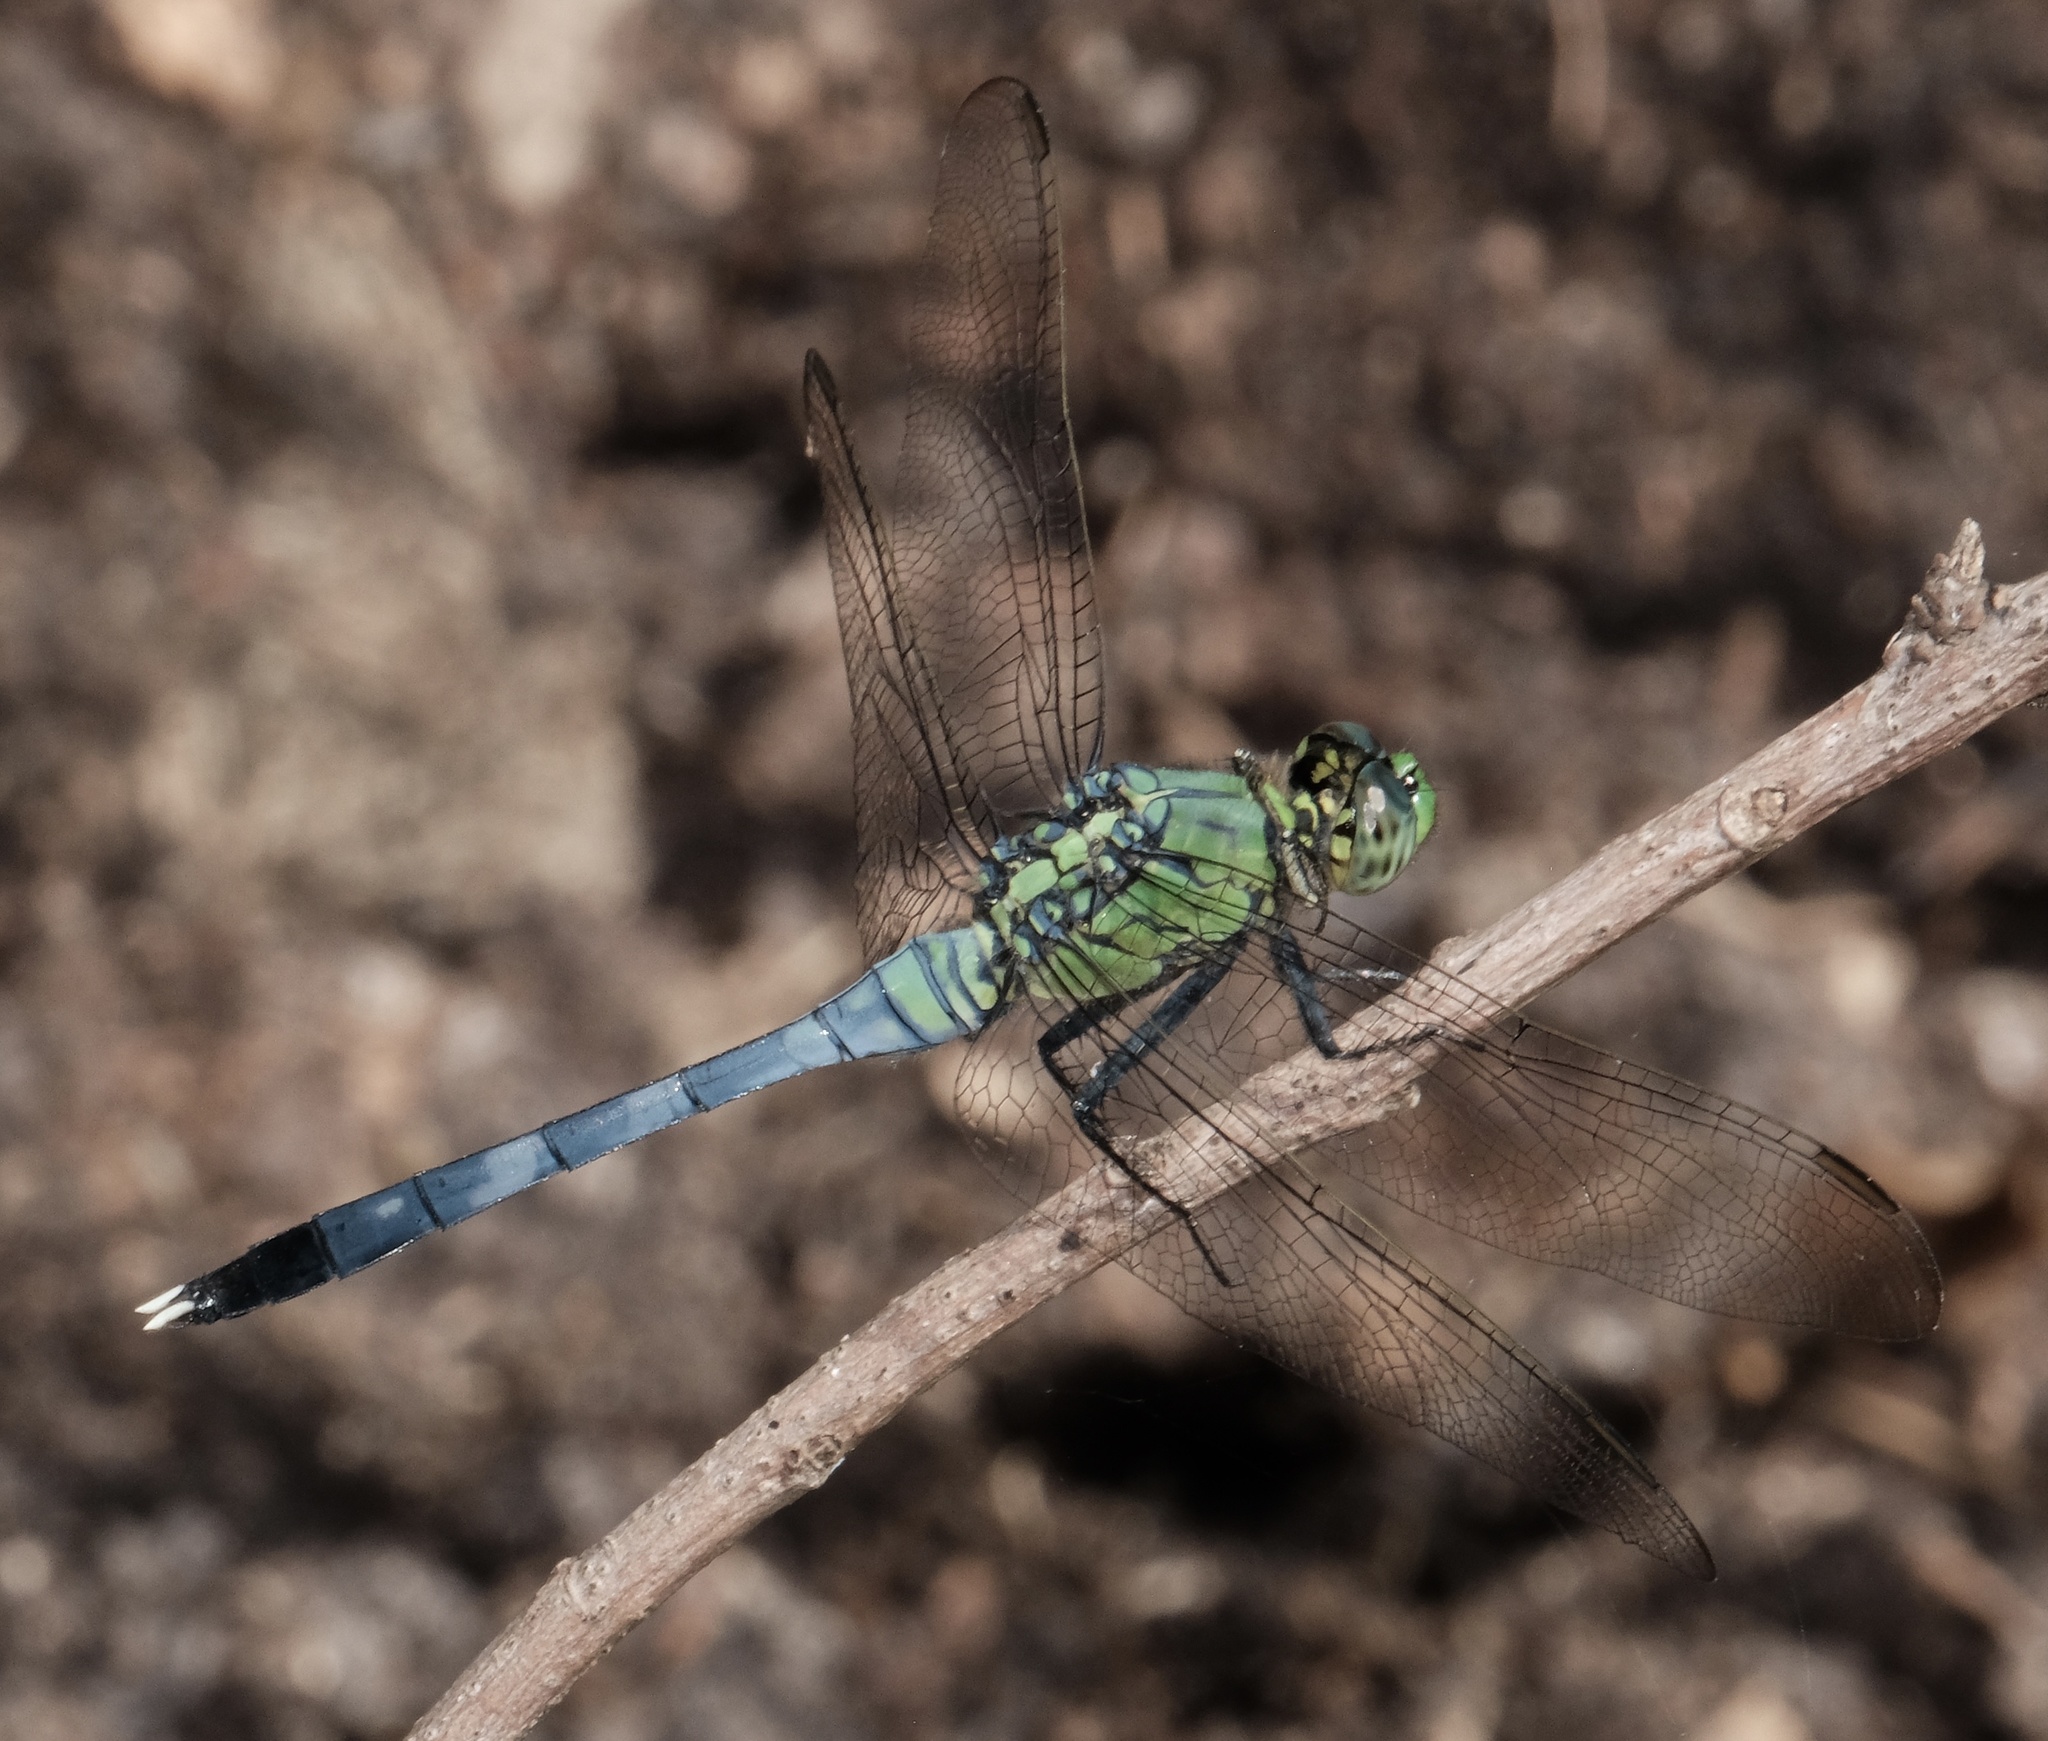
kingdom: Animalia
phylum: Arthropoda
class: Insecta
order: Odonata
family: Libellulidae
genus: Erythemis
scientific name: Erythemis simplicicollis
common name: Eastern pondhawk
